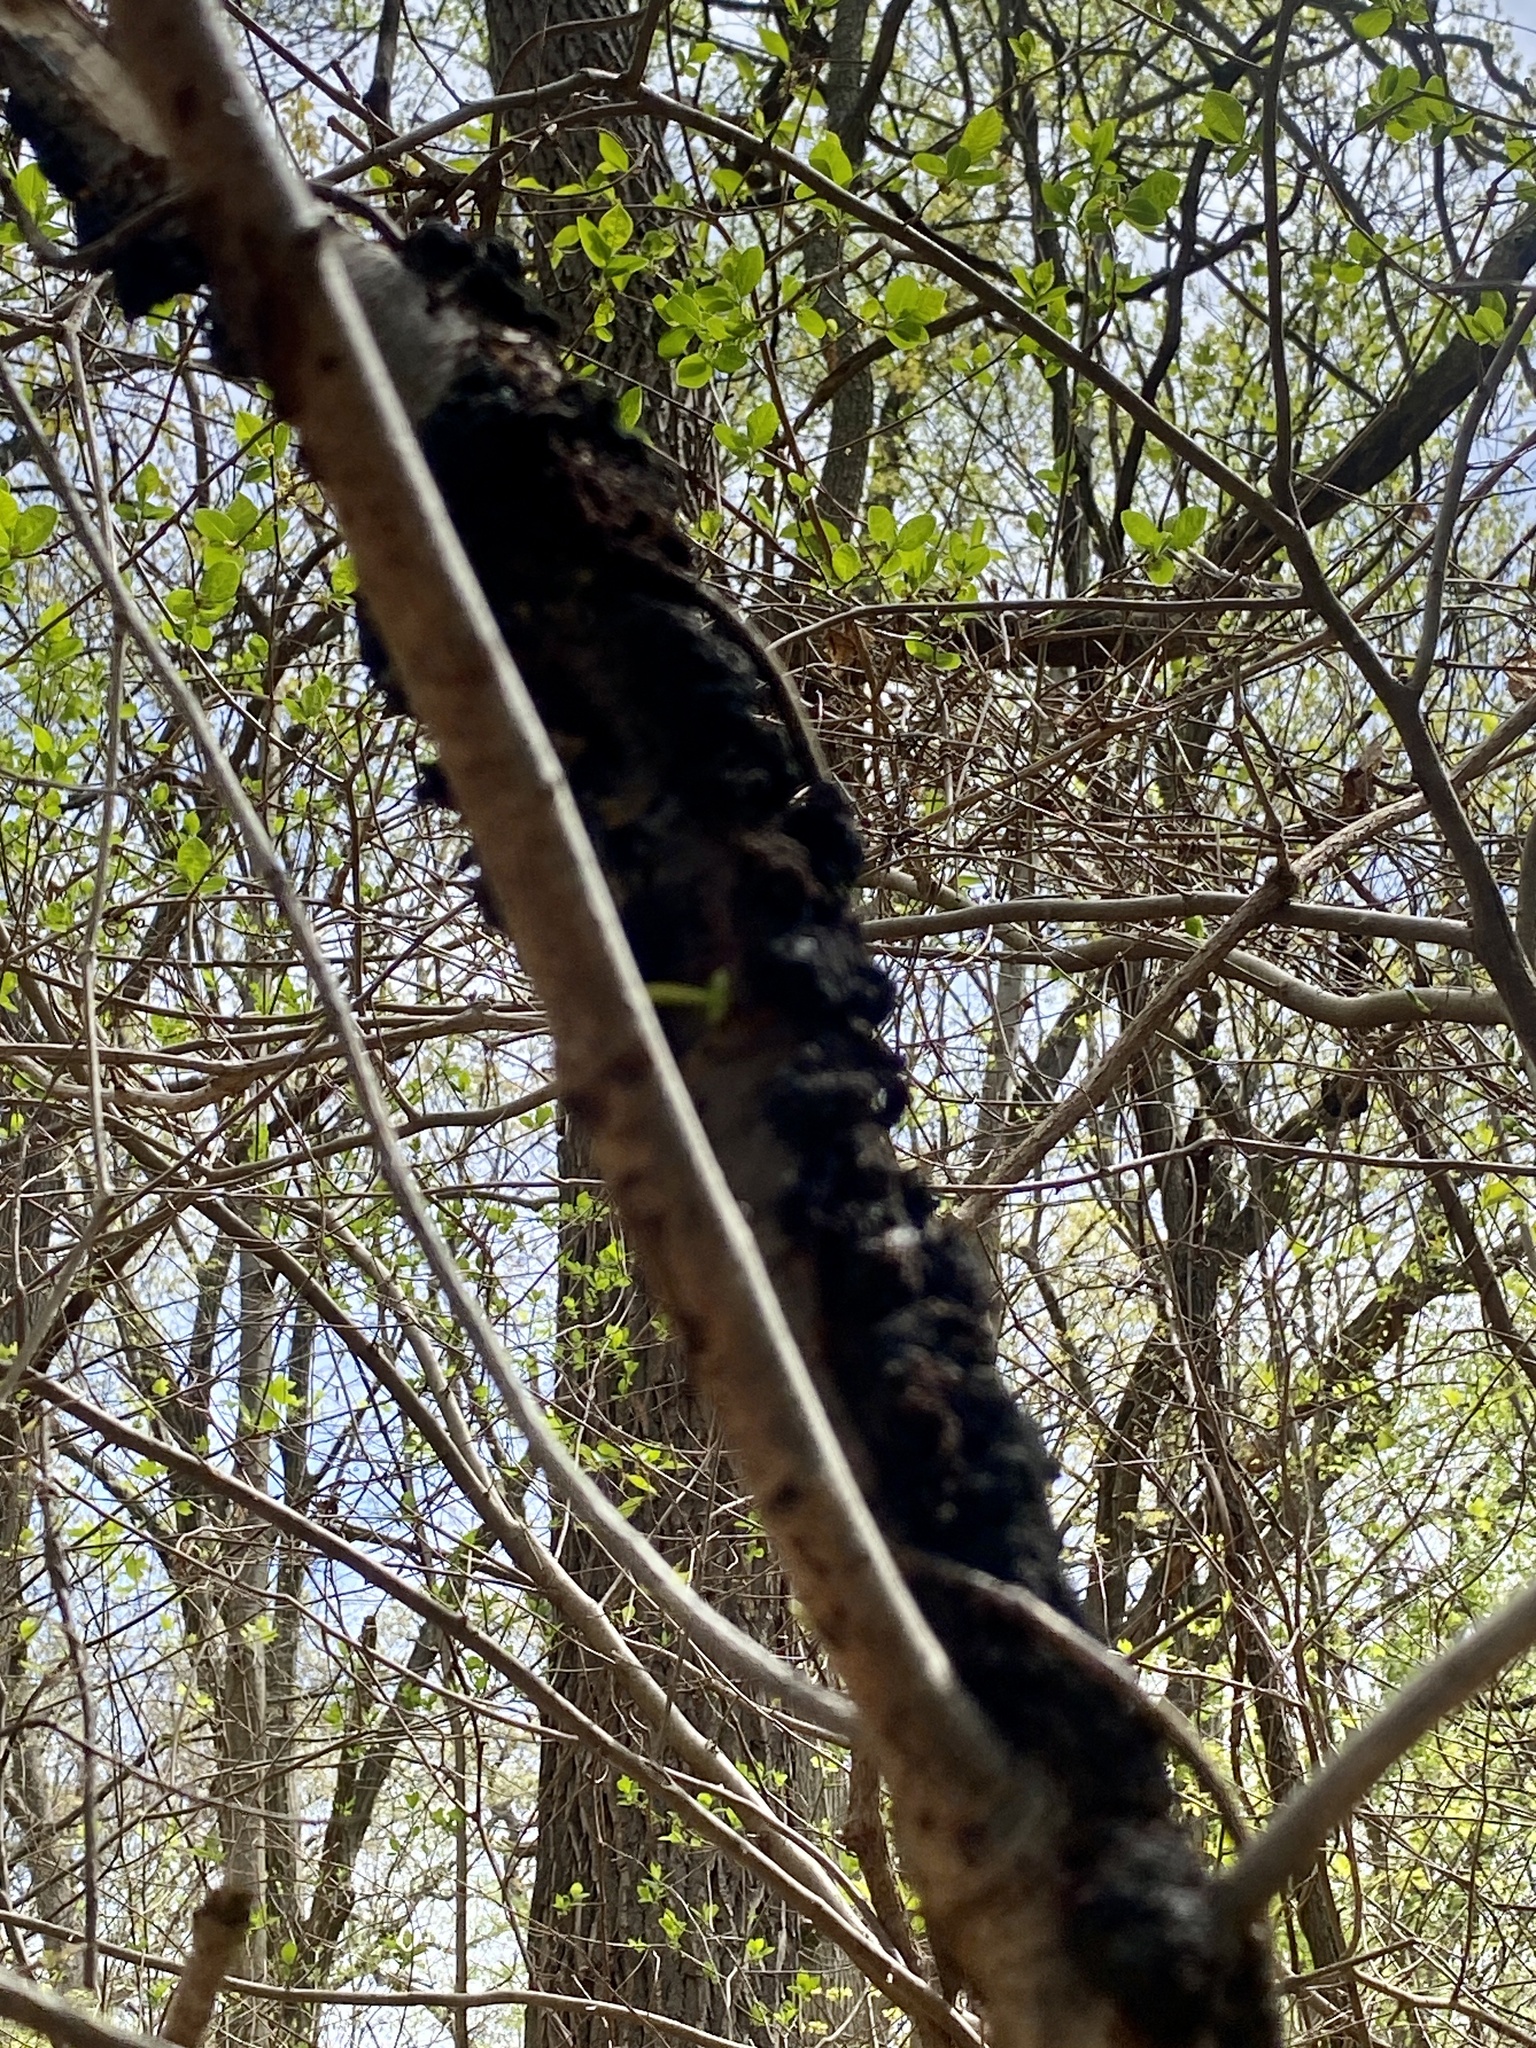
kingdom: Fungi
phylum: Ascomycota
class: Dothideomycetes
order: Venturiales
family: Venturiaceae
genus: Apiosporina
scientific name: Apiosporina morbosa
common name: Black knot
